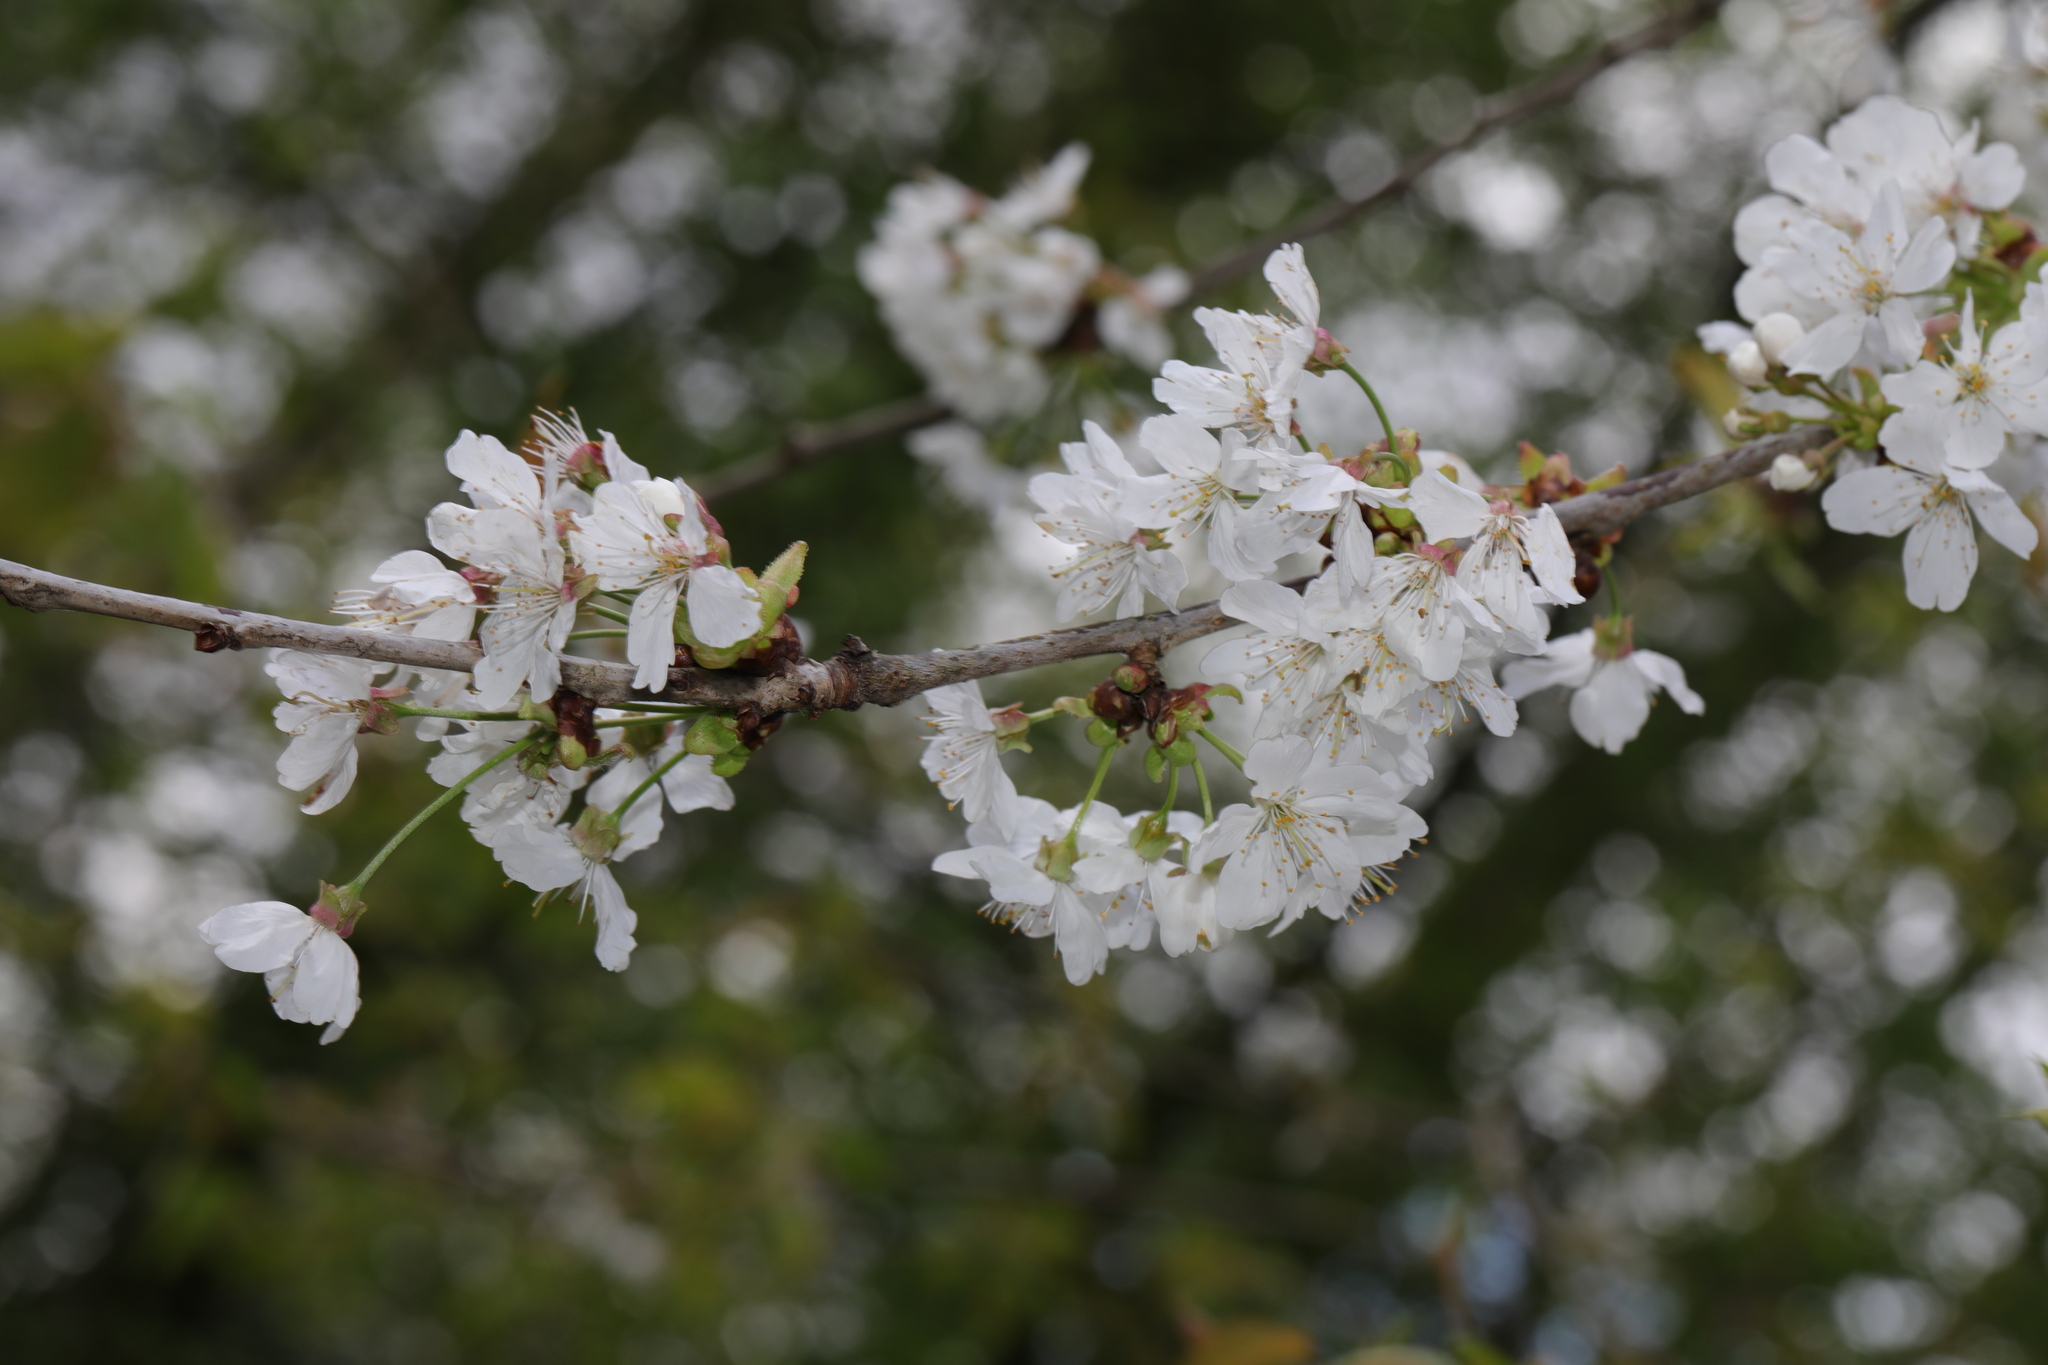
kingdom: Plantae
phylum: Tracheophyta
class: Magnoliopsida
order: Rosales
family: Rosaceae
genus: Prunus
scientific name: Prunus avium
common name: Sweet cherry
